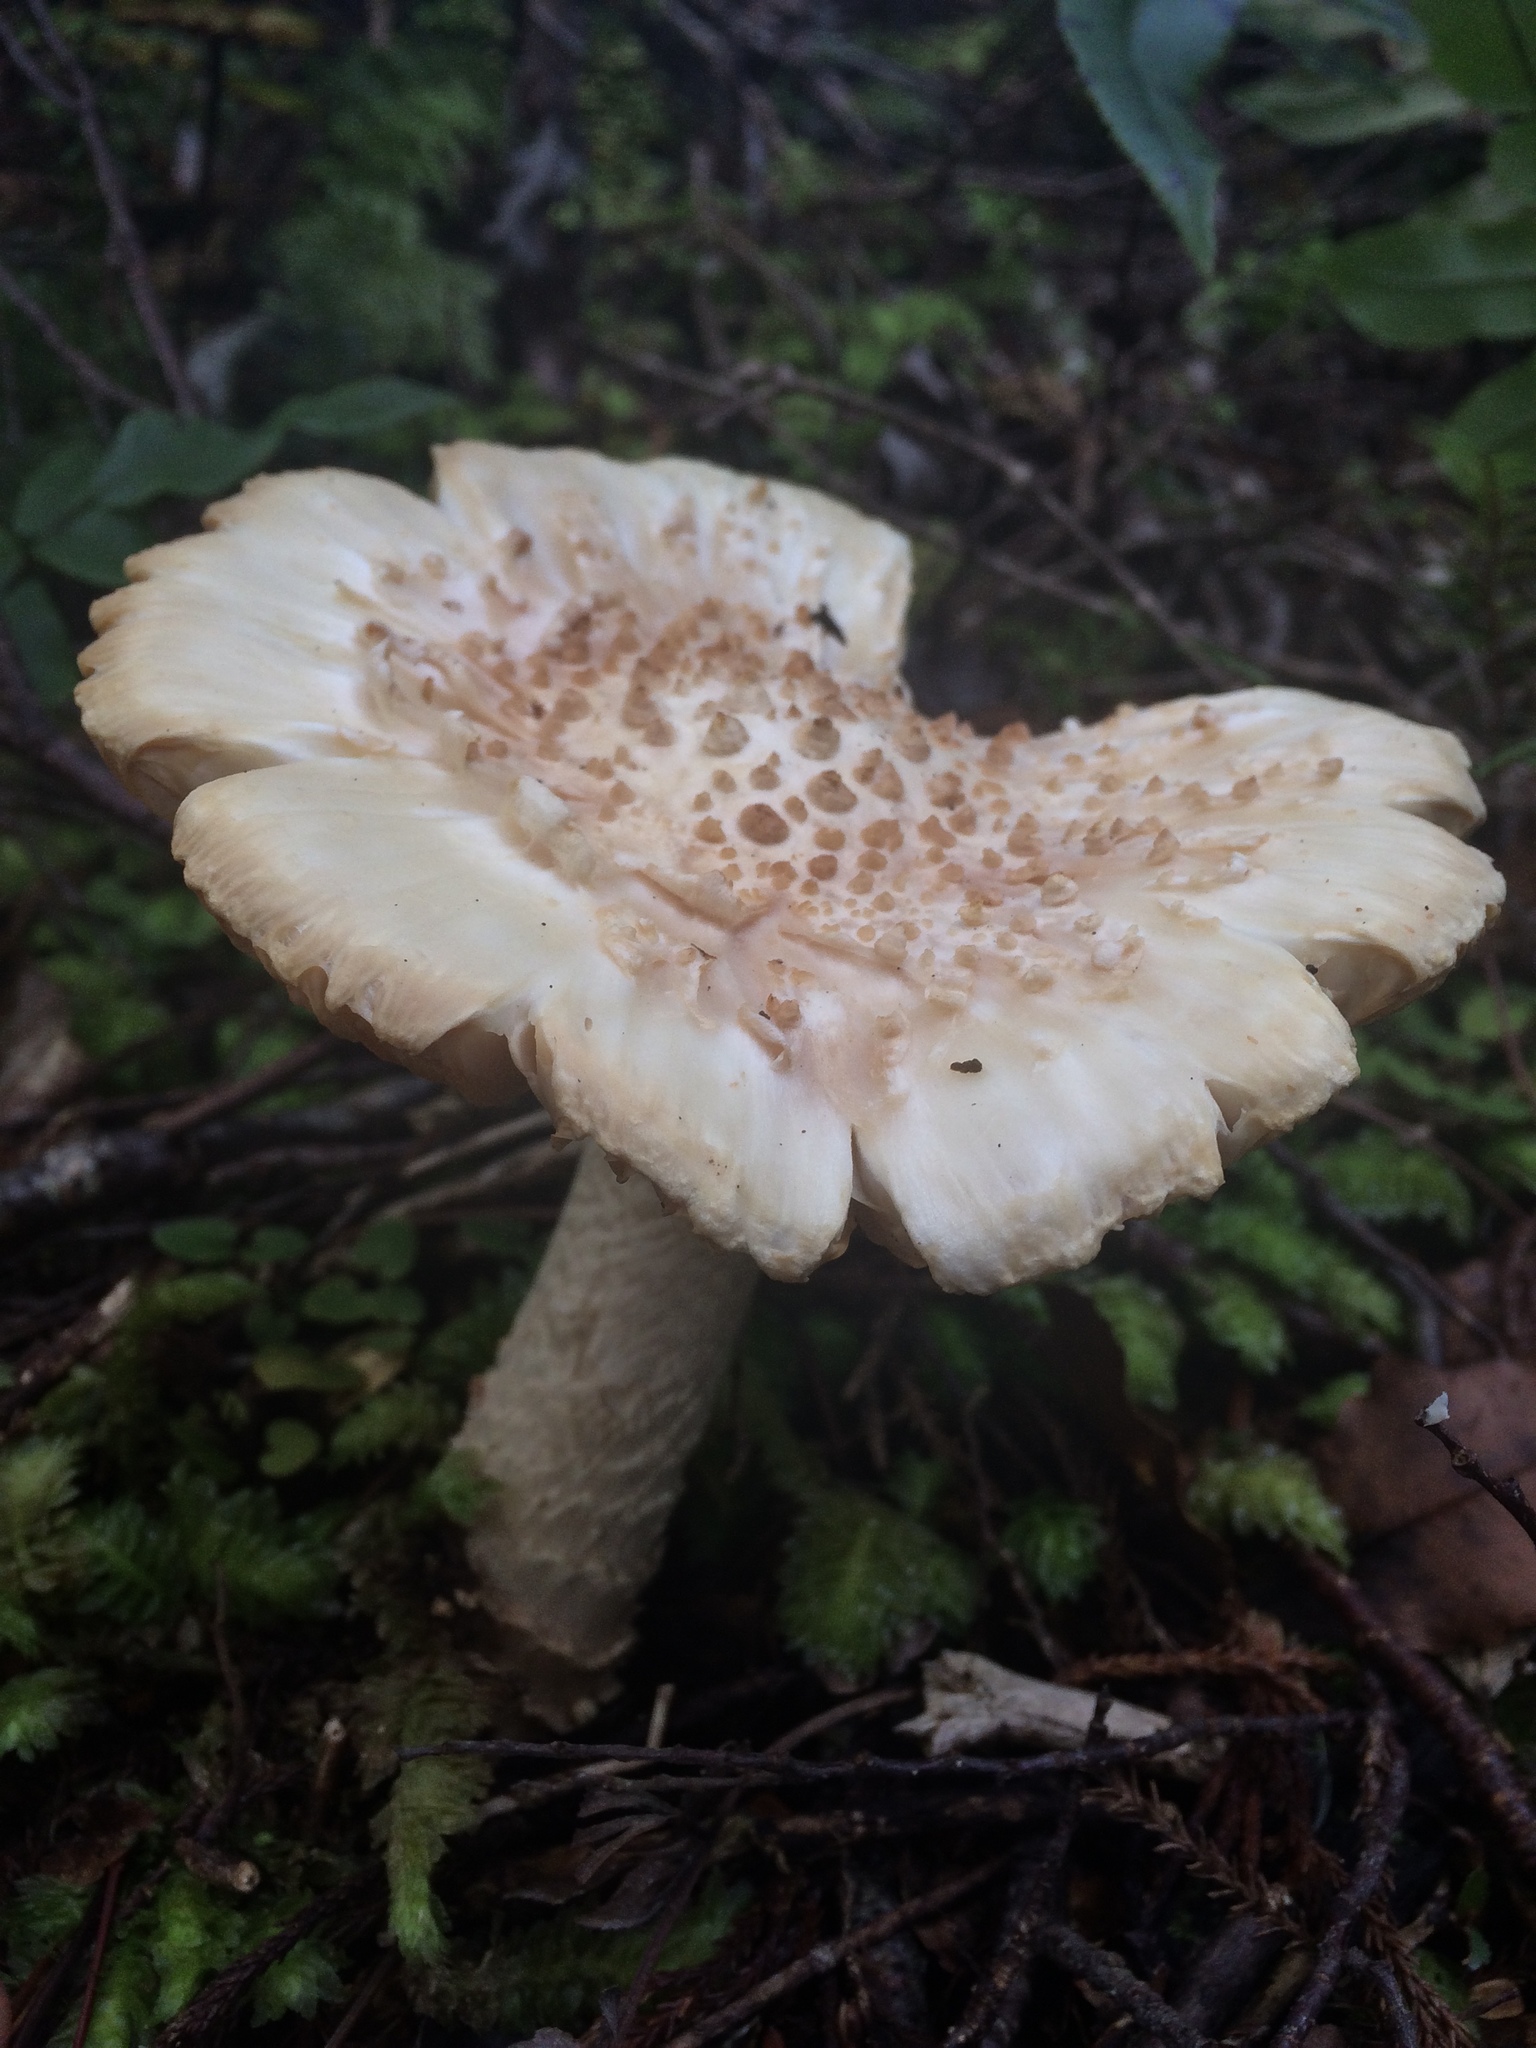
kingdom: Fungi
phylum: Basidiomycota
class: Agaricomycetes
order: Agaricales
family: Amanitaceae
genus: Amanita
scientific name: Amanita pareparina
